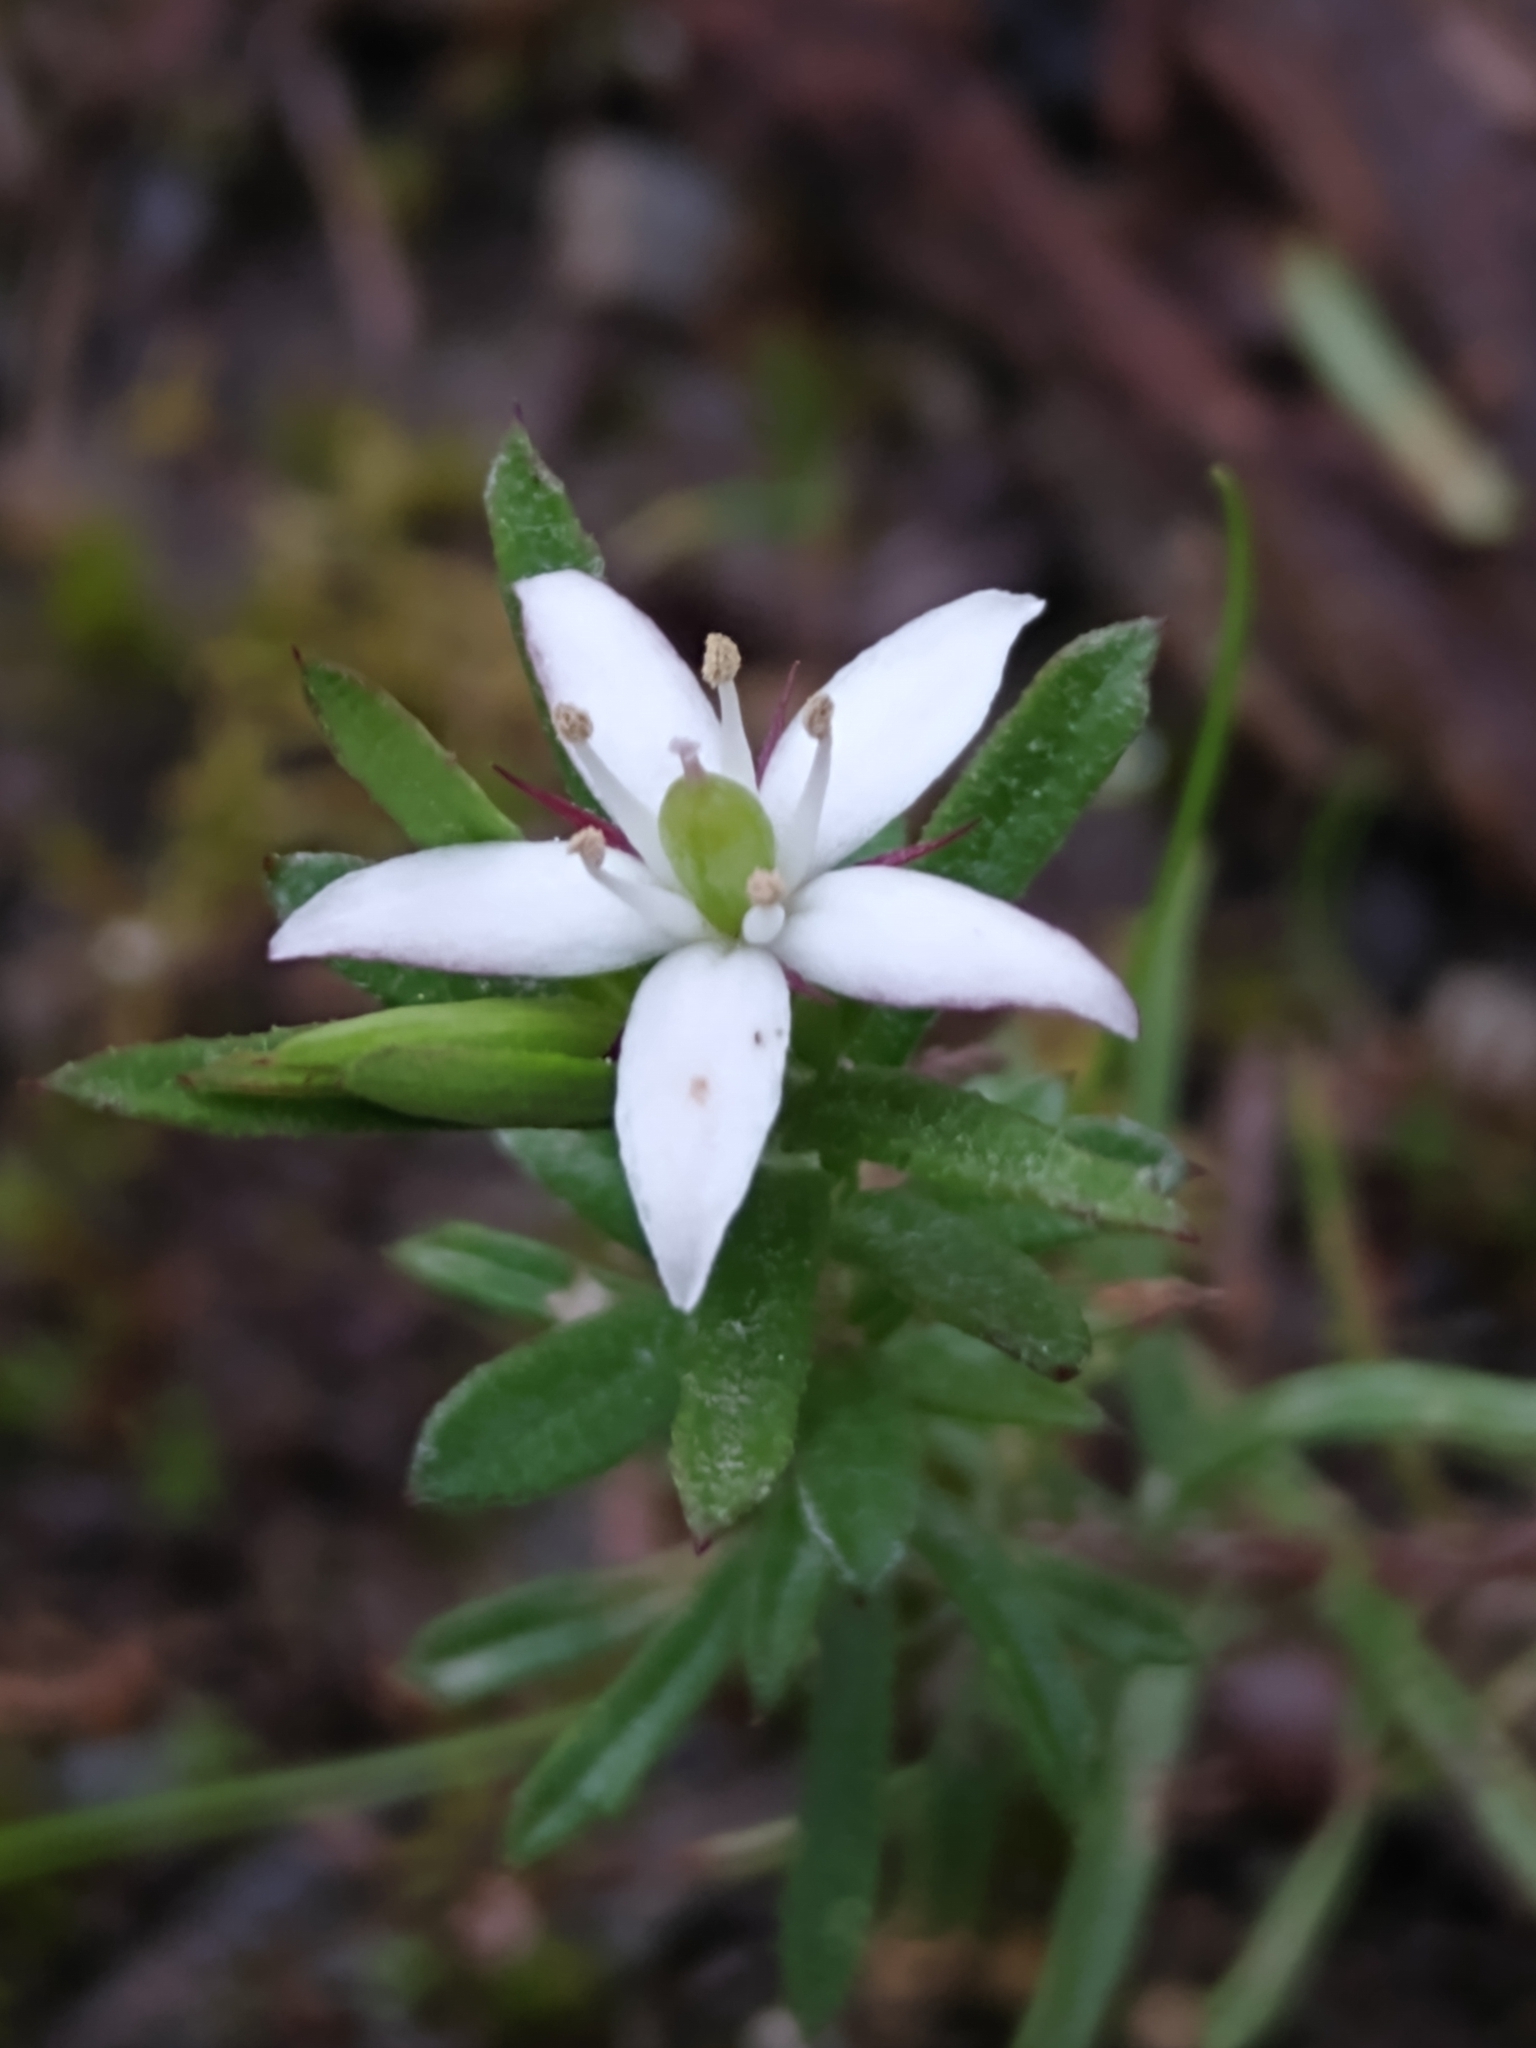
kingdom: Plantae
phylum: Tracheophyta
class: Magnoliopsida
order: Apiales
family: Pittosporaceae
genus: Rhytidosporum
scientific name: Rhytidosporum procumbens
